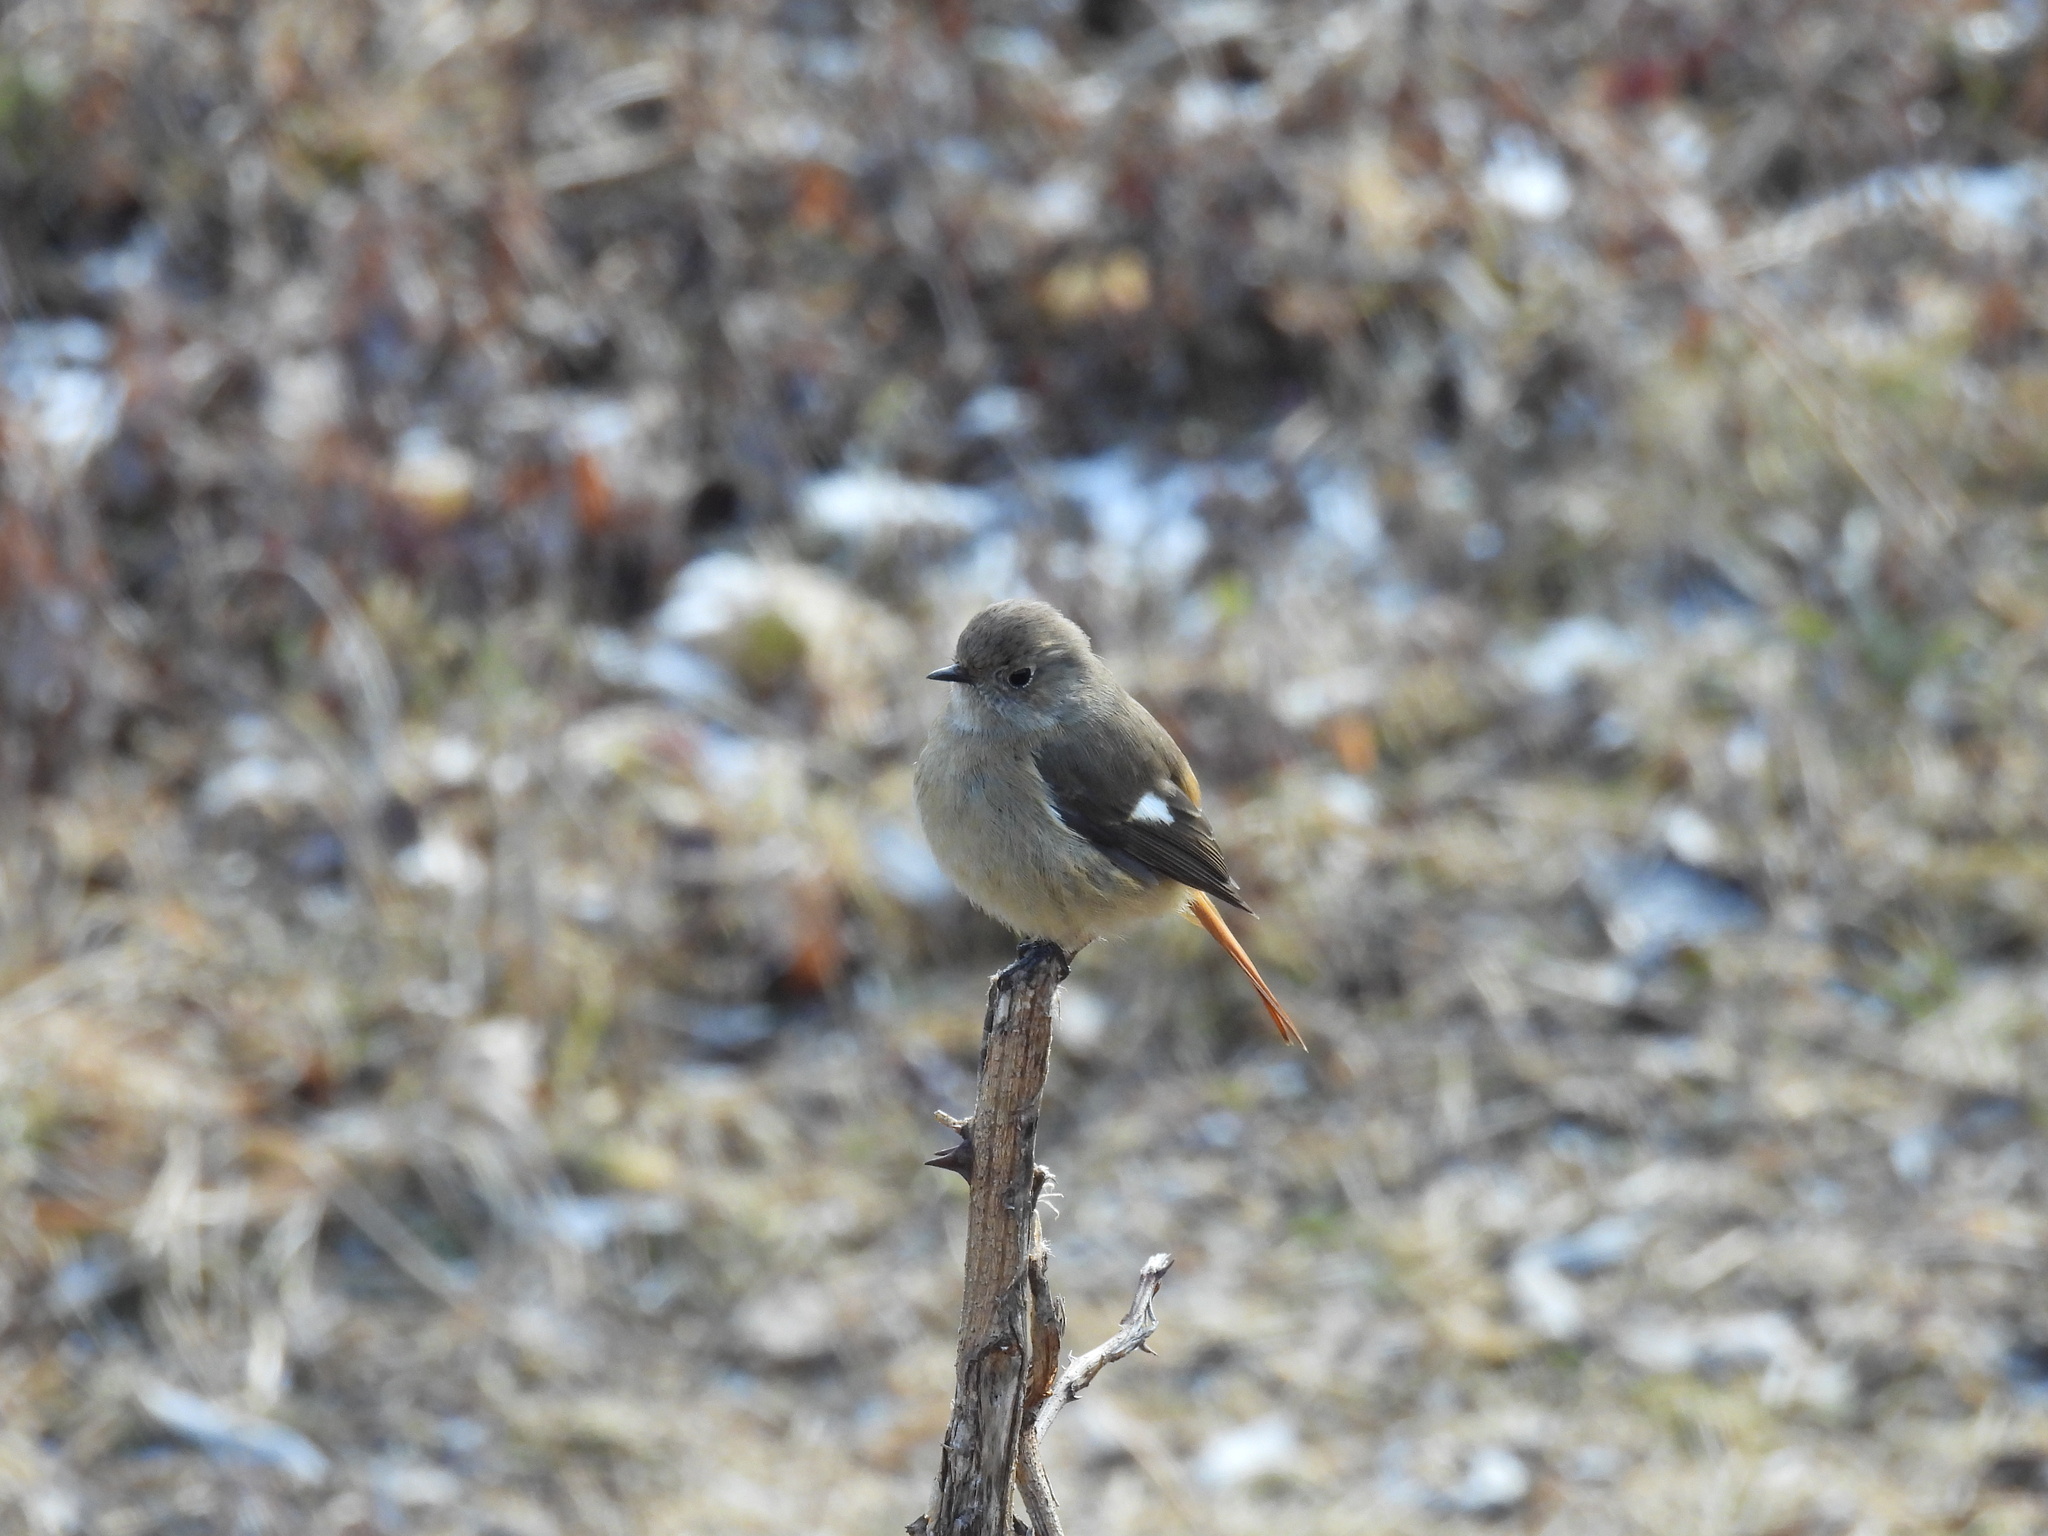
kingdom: Animalia
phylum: Chordata
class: Aves
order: Passeriformes
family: Muscicapidae
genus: Phoenicurus
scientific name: Phoenicurus auroreus
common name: Daurian redstart
